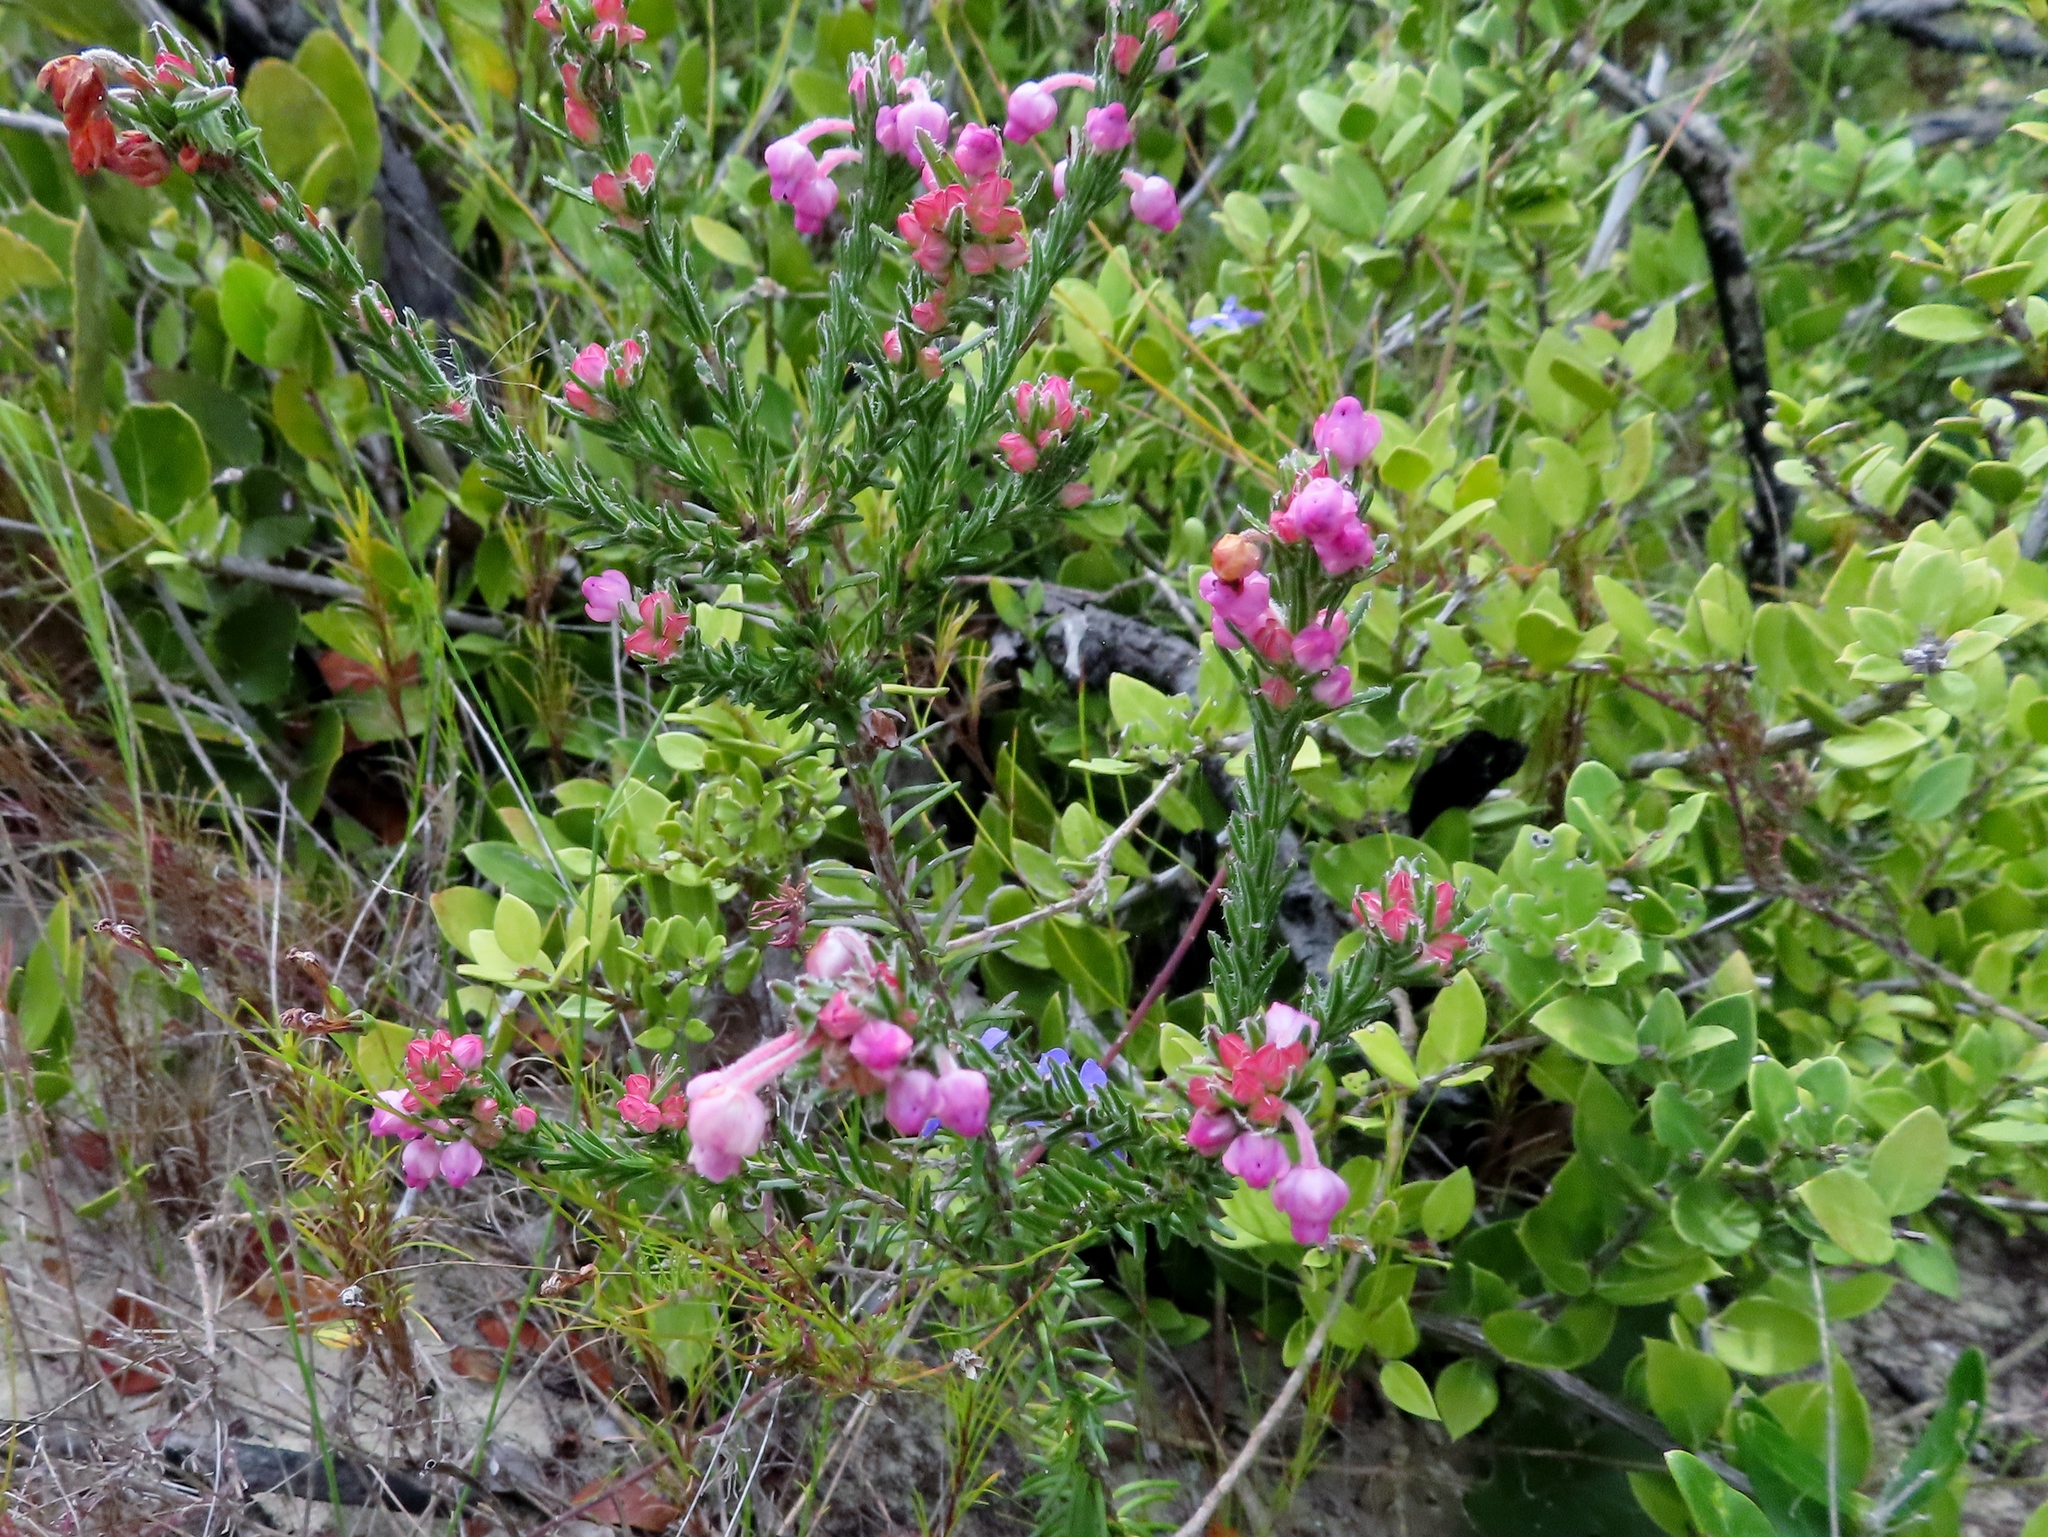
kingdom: Plantae
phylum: Tracheophyta
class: Magnoliopsida
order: Ericales
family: Ericaceae
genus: Erica
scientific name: Erica excavata
